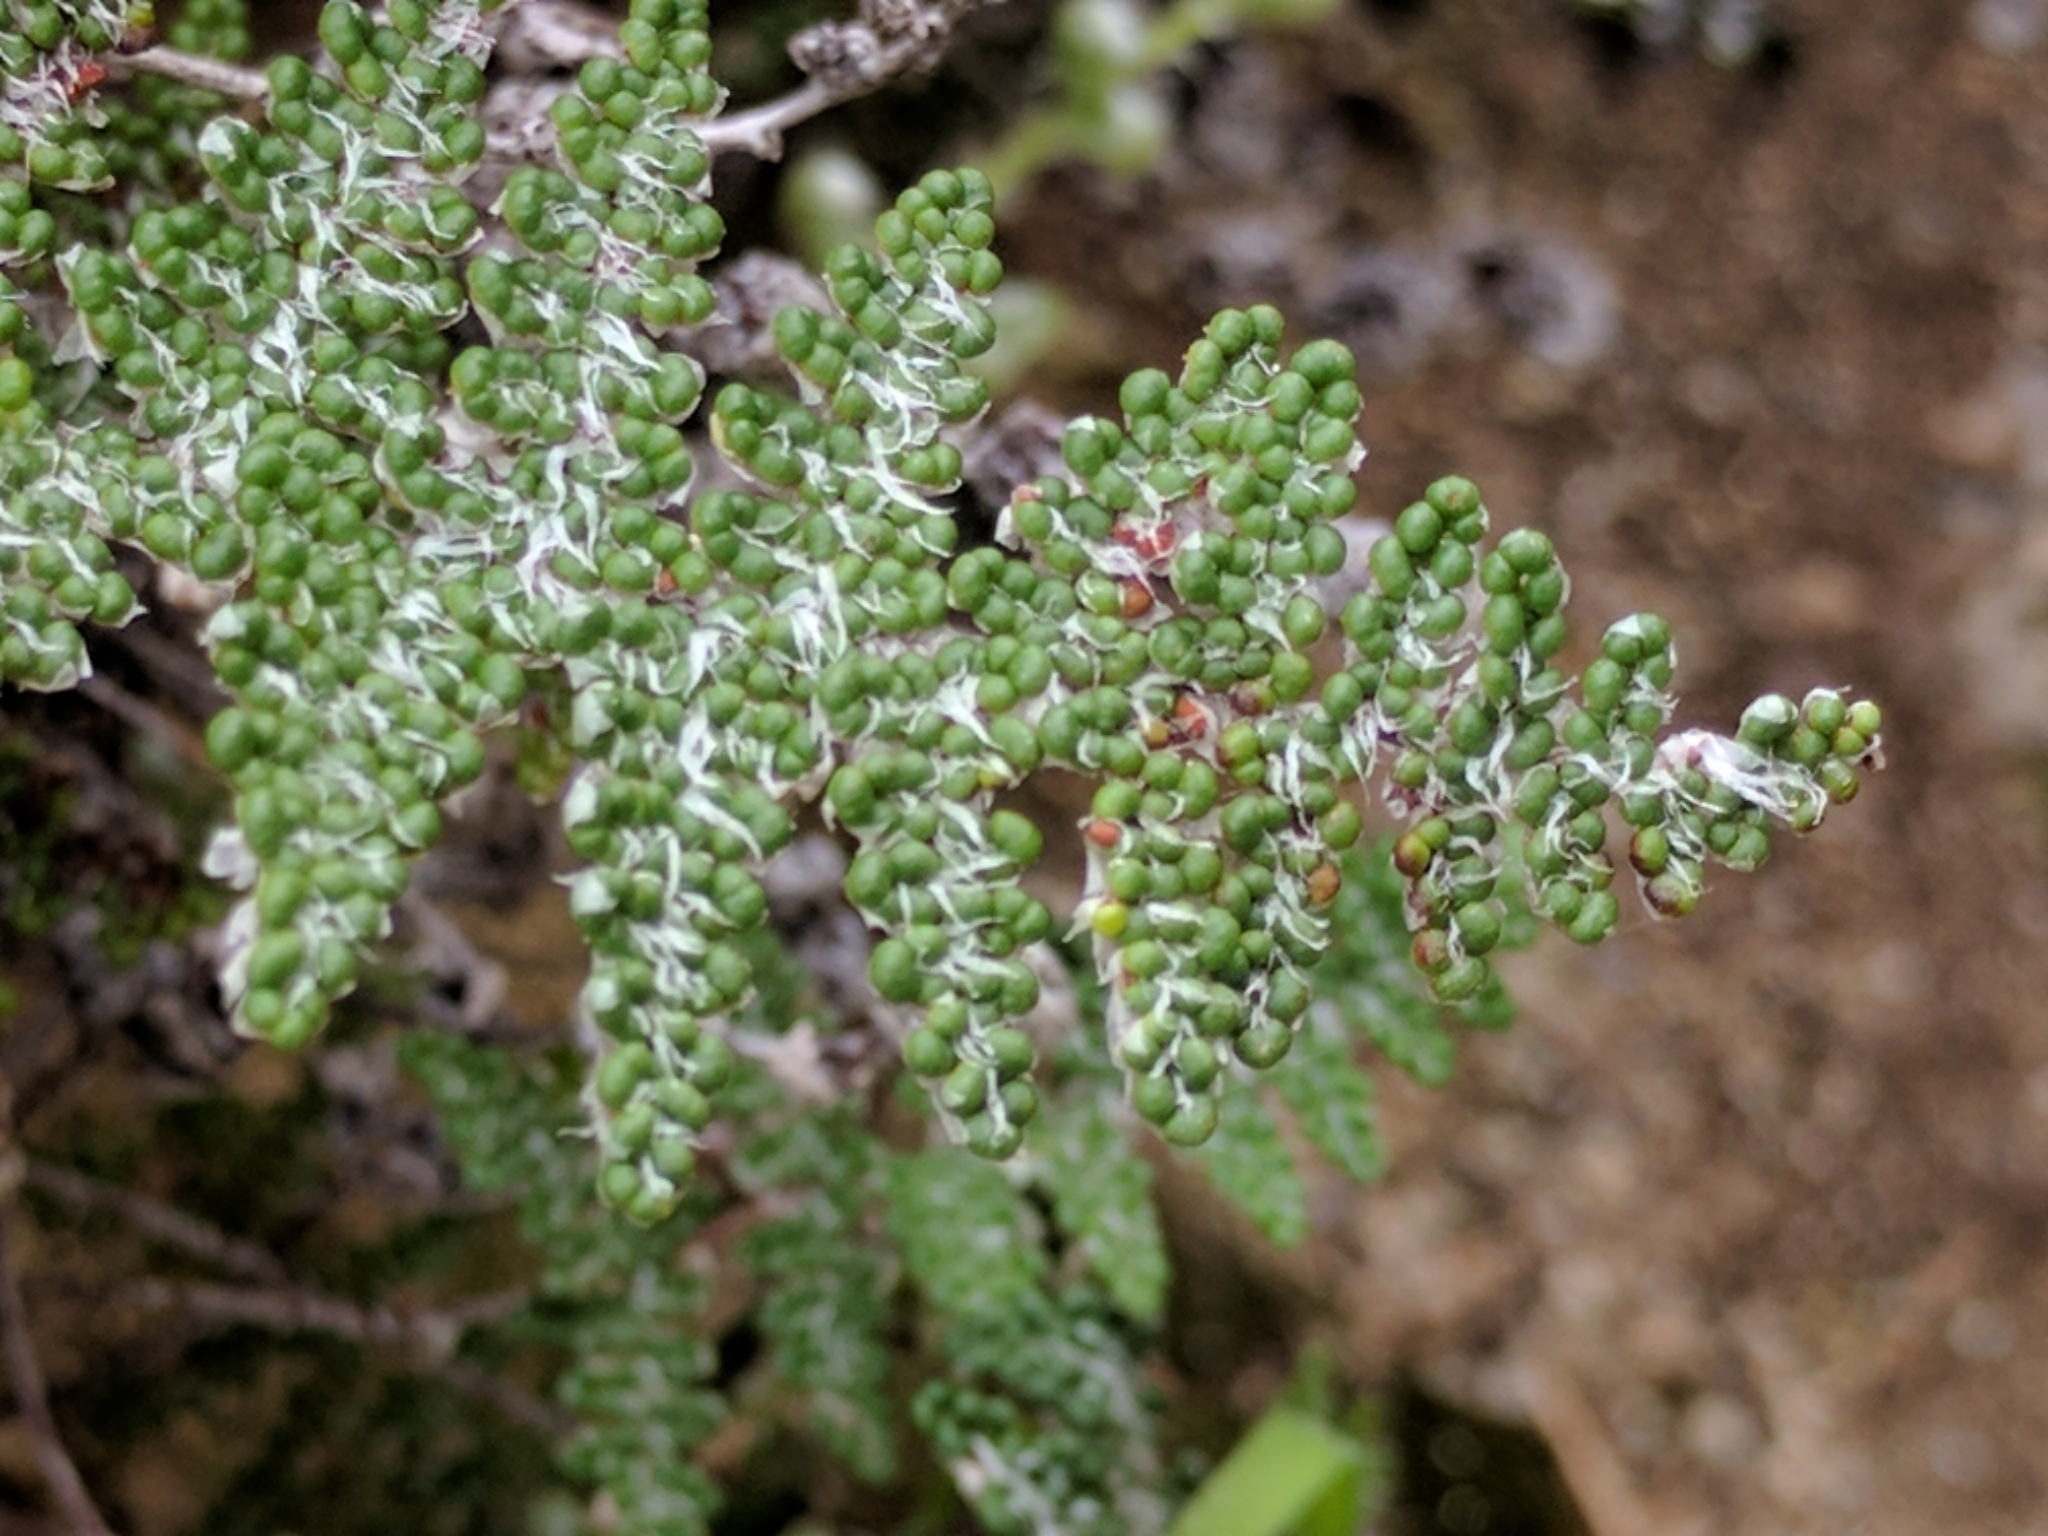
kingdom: Plantae
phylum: Tracheophyta
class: Polypodiopsida
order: Polypodiales
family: Pteridaceae
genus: Myriopteris
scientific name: Myriopteris covillei
